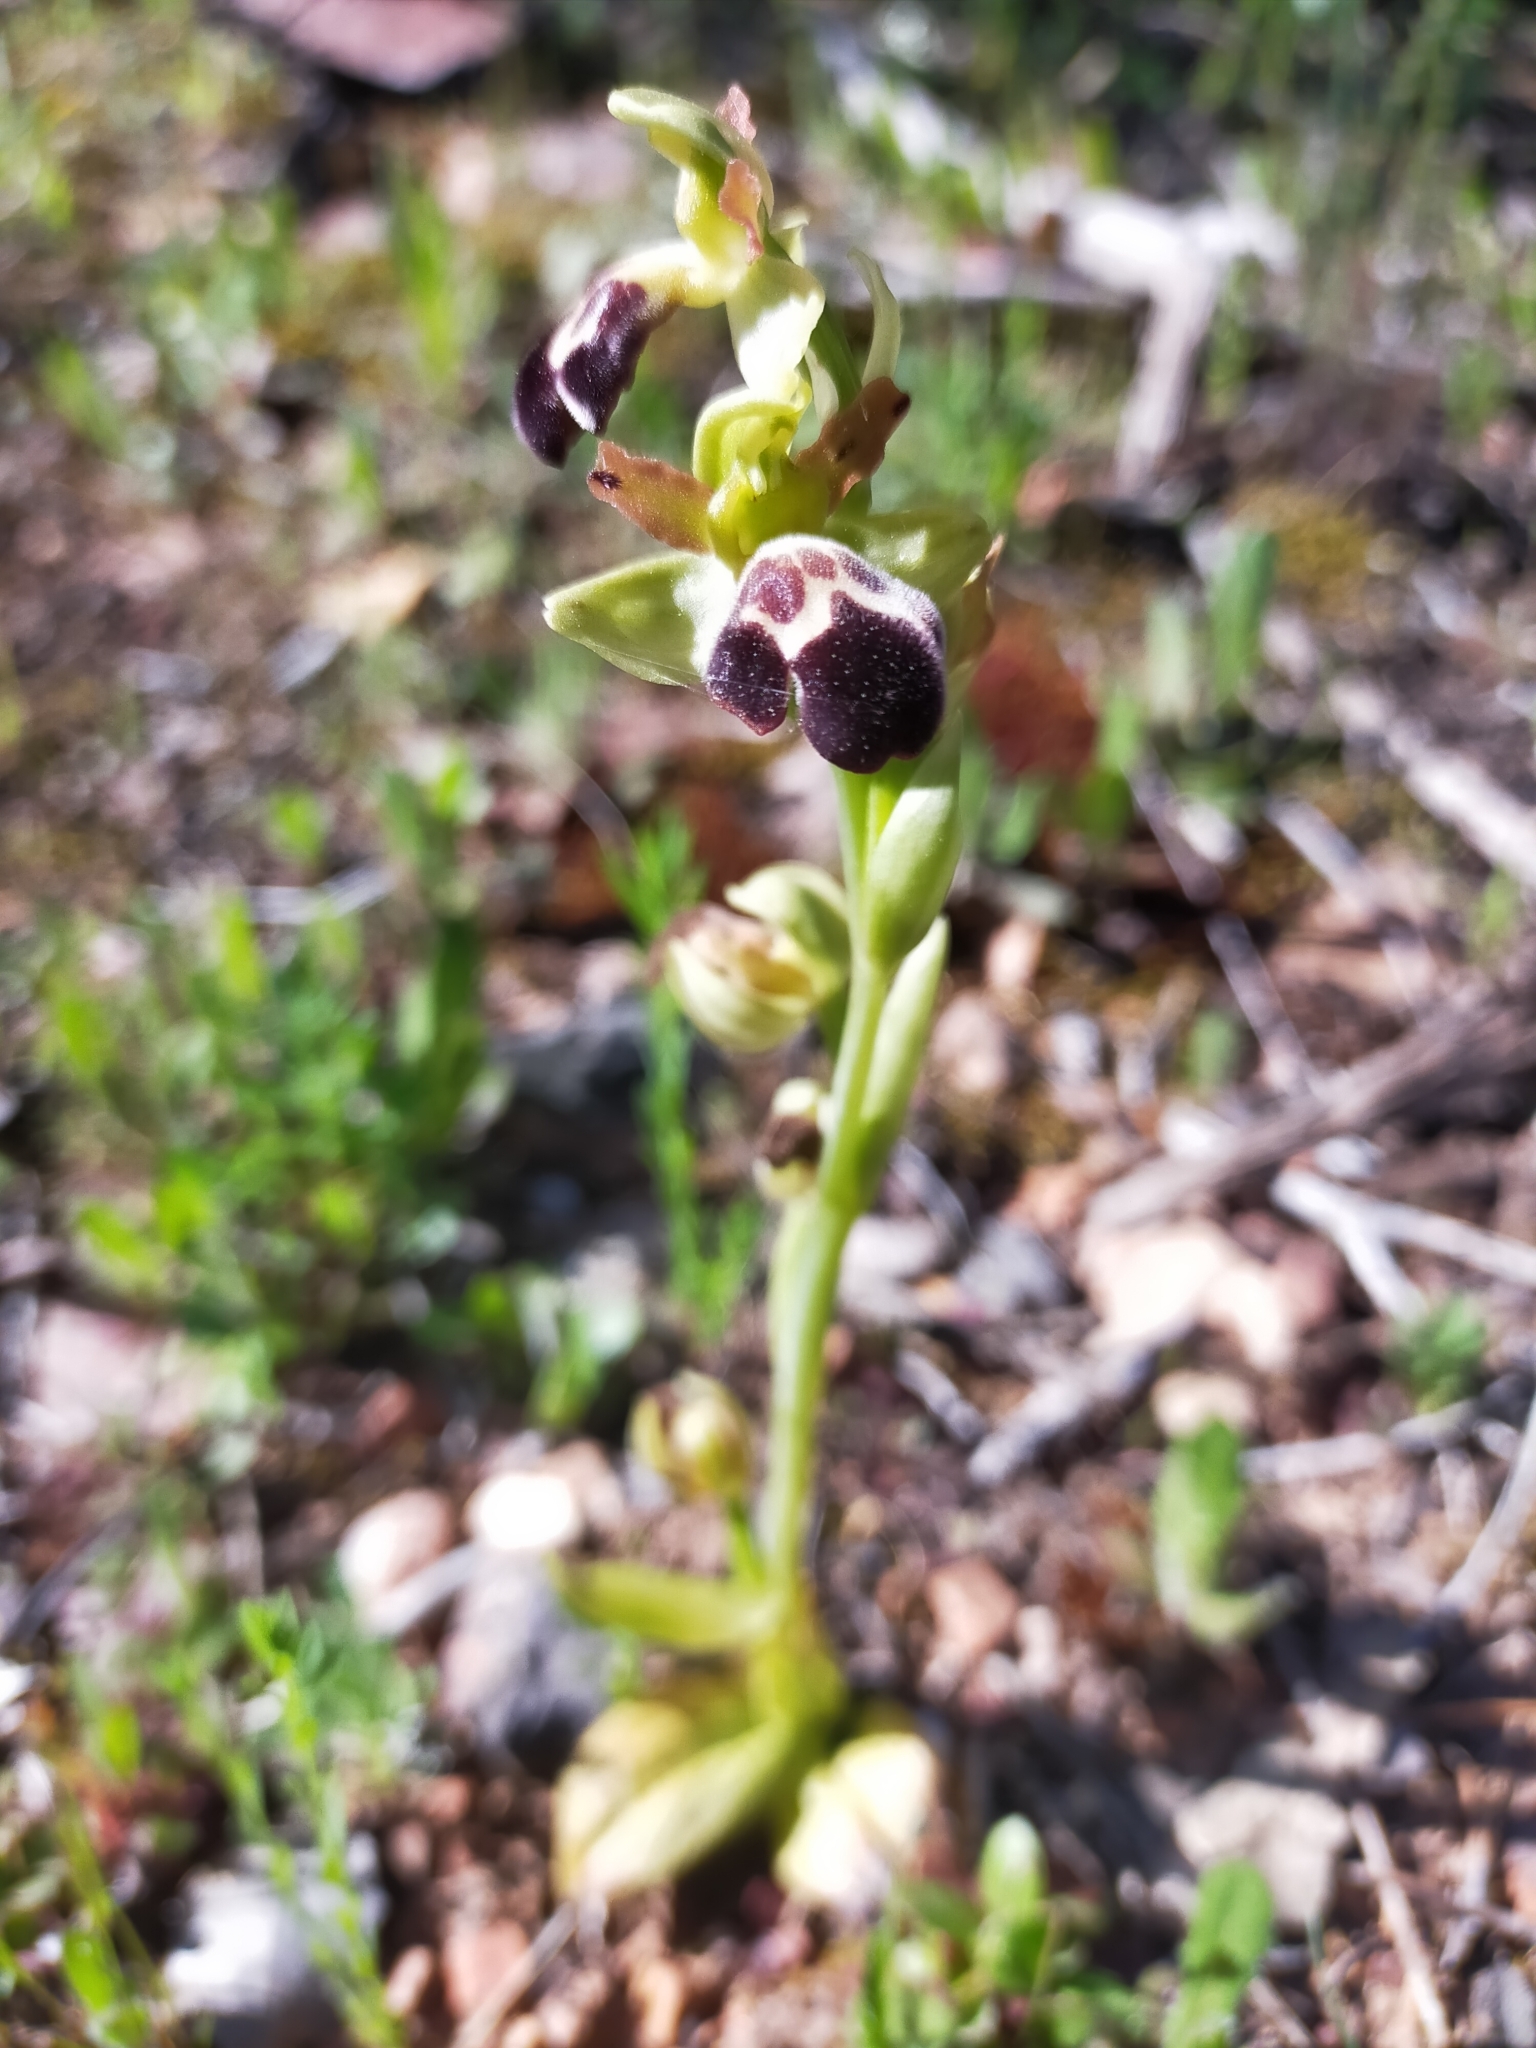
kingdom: Plantae
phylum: Tracheophyta
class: Liliopsida
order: Asparagales
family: Orchidaceae
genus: Ophrys
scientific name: Ophrys omegaifera
